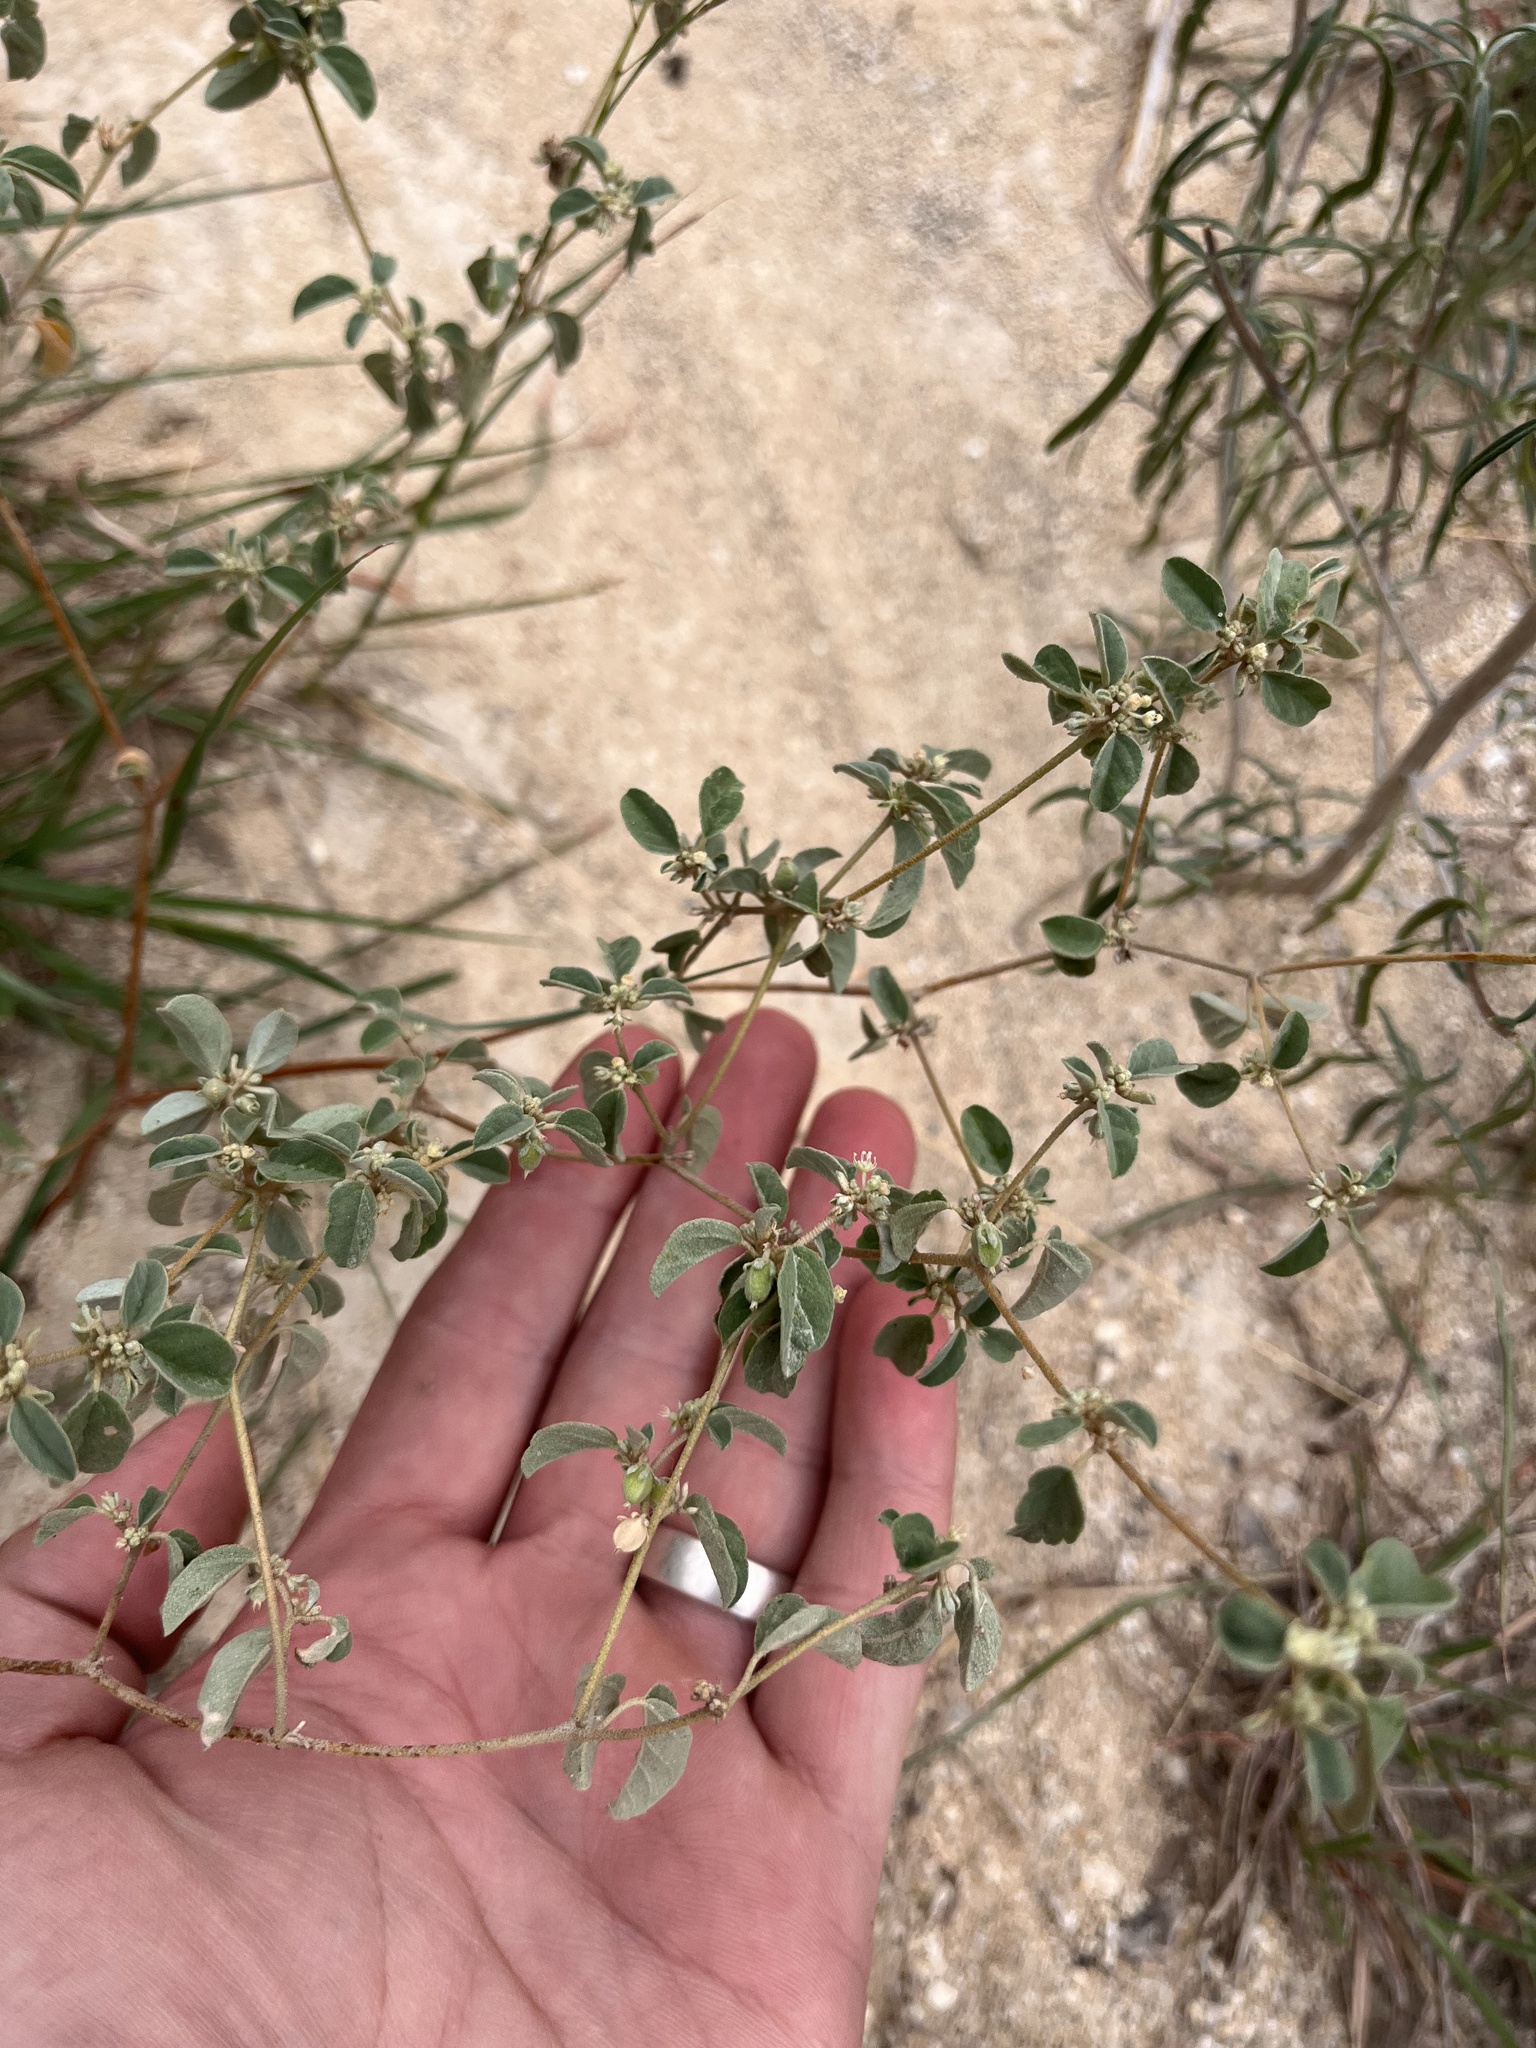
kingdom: Plantae
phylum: Tracheophyta
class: Magnoliopsida
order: Malpighiales
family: Euphorbiaceae
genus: Croton
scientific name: Croton monanthogynus
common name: One-seed croton
